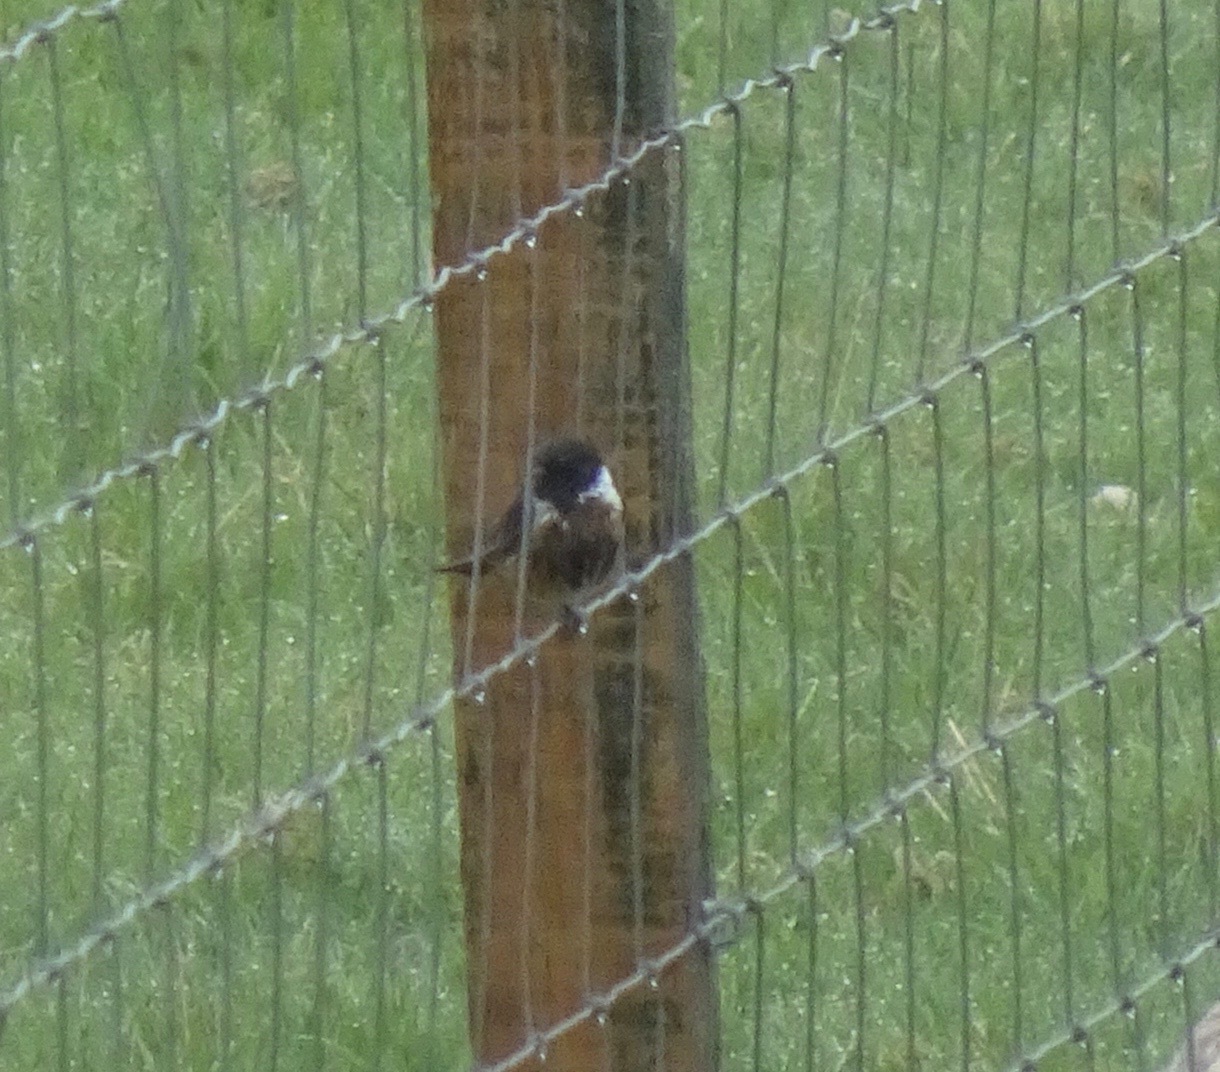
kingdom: Animalia
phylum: Chordata
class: Aves
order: Passeriformes
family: Muscicapidae
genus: Saxicola
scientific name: Saxicola rubicola
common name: European stonechat
